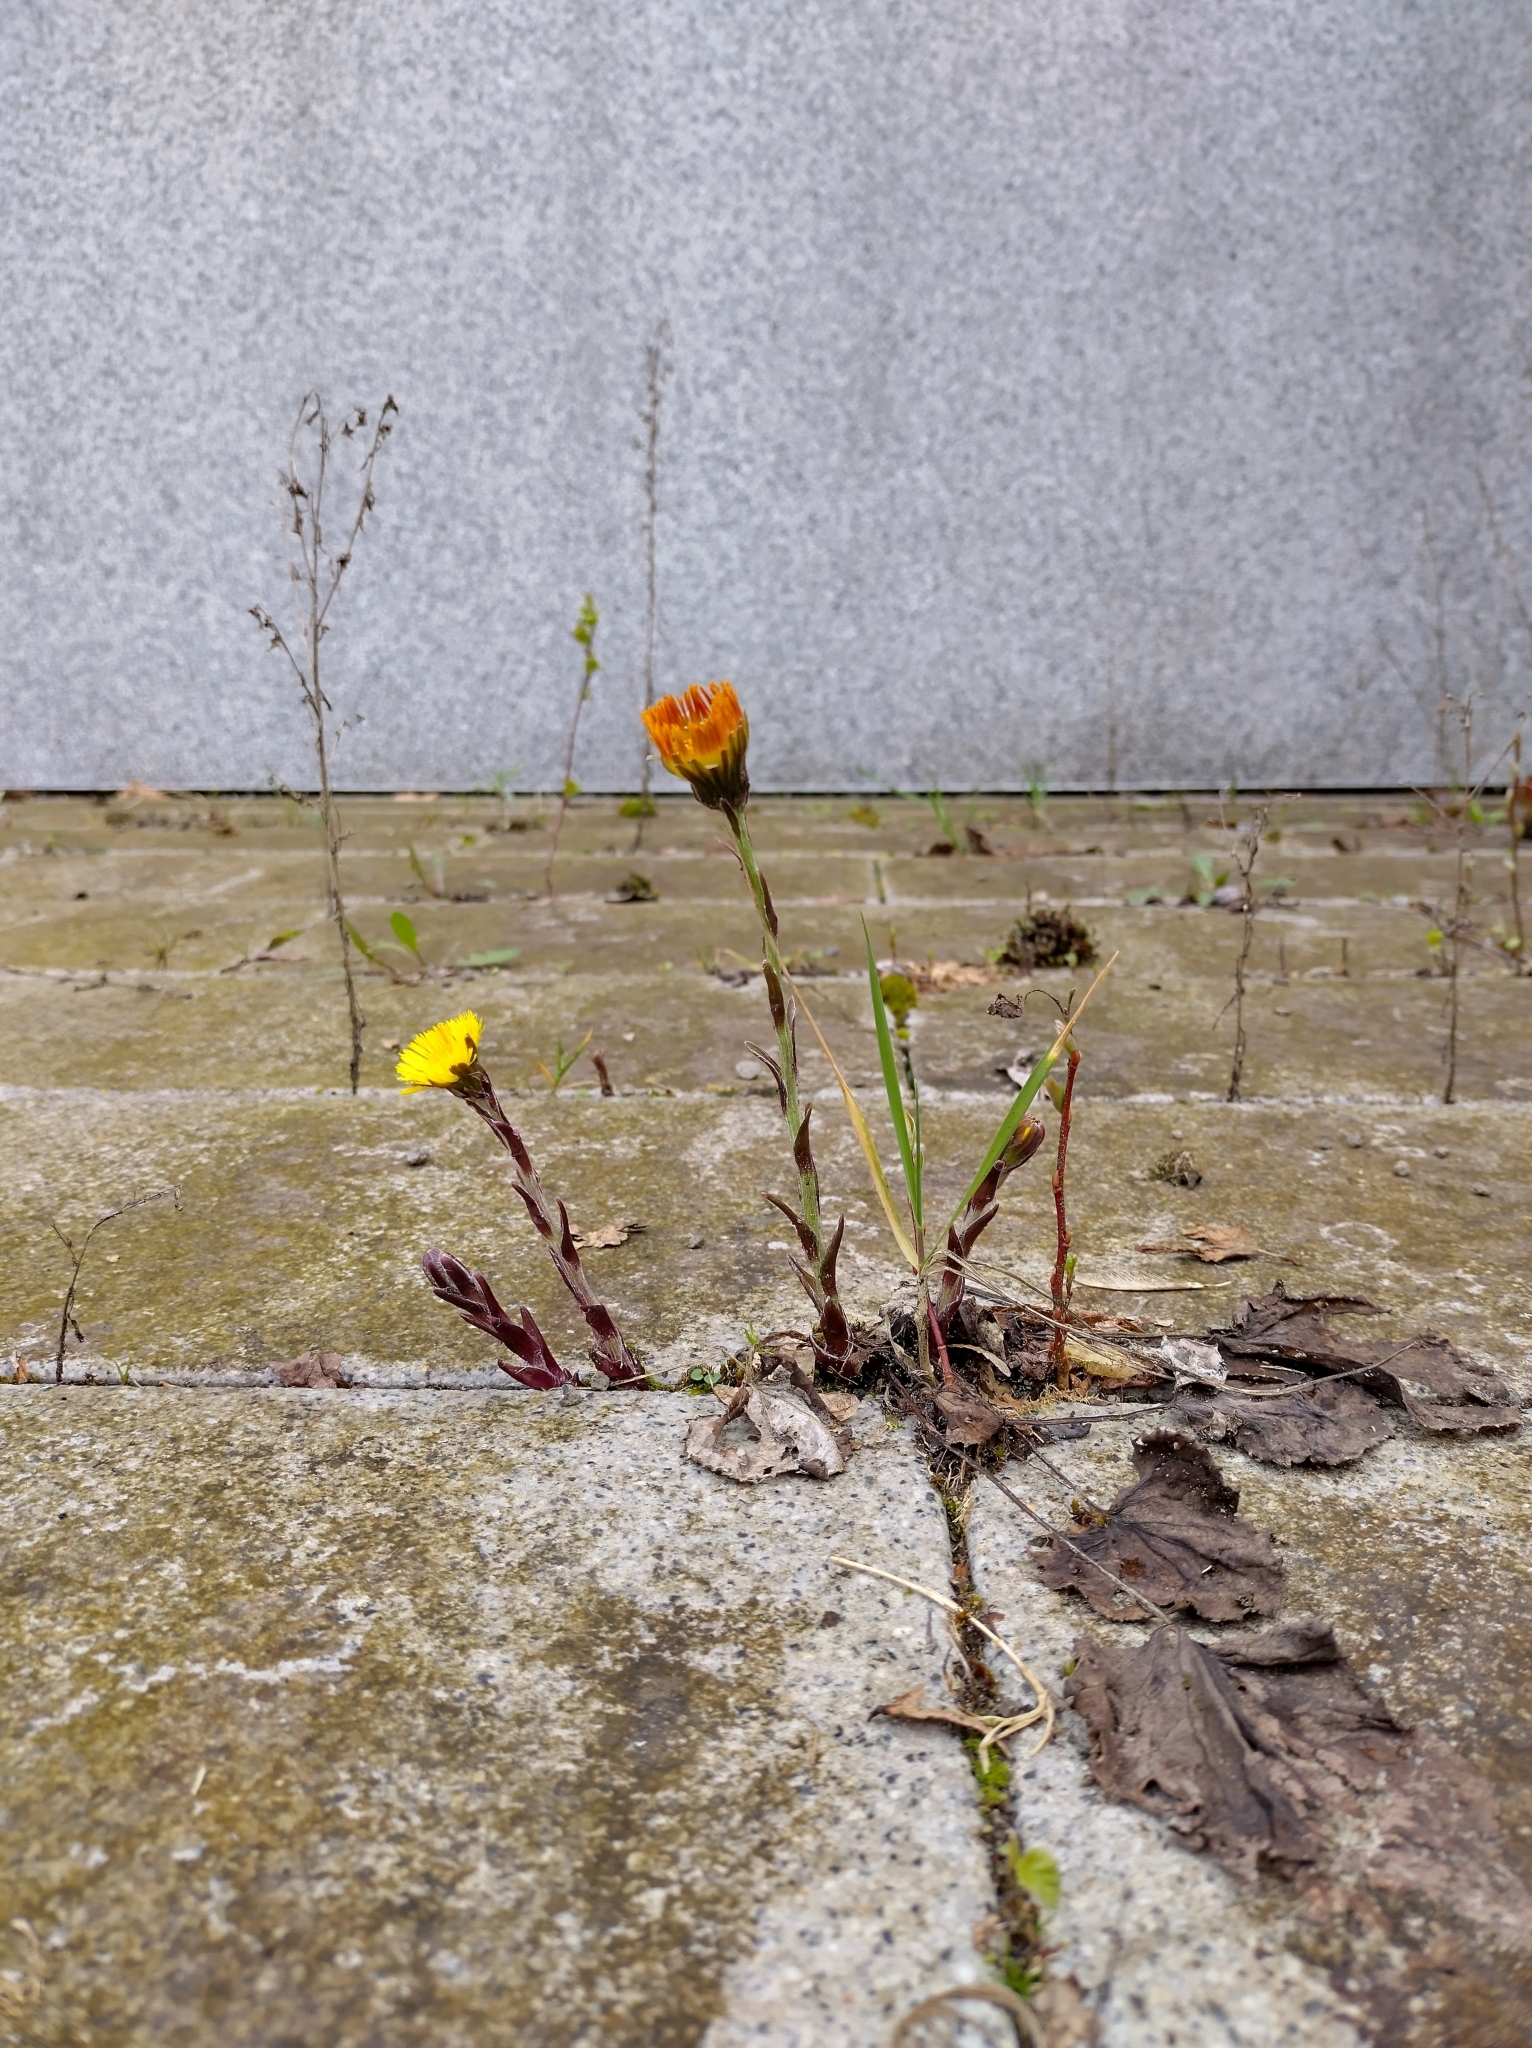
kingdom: Plantae
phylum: Tracheophyta
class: Magnoliopsida
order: Asterales
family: Asteraceae
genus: Tussilago
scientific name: Tussilago farfara
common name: Coltsfoot
